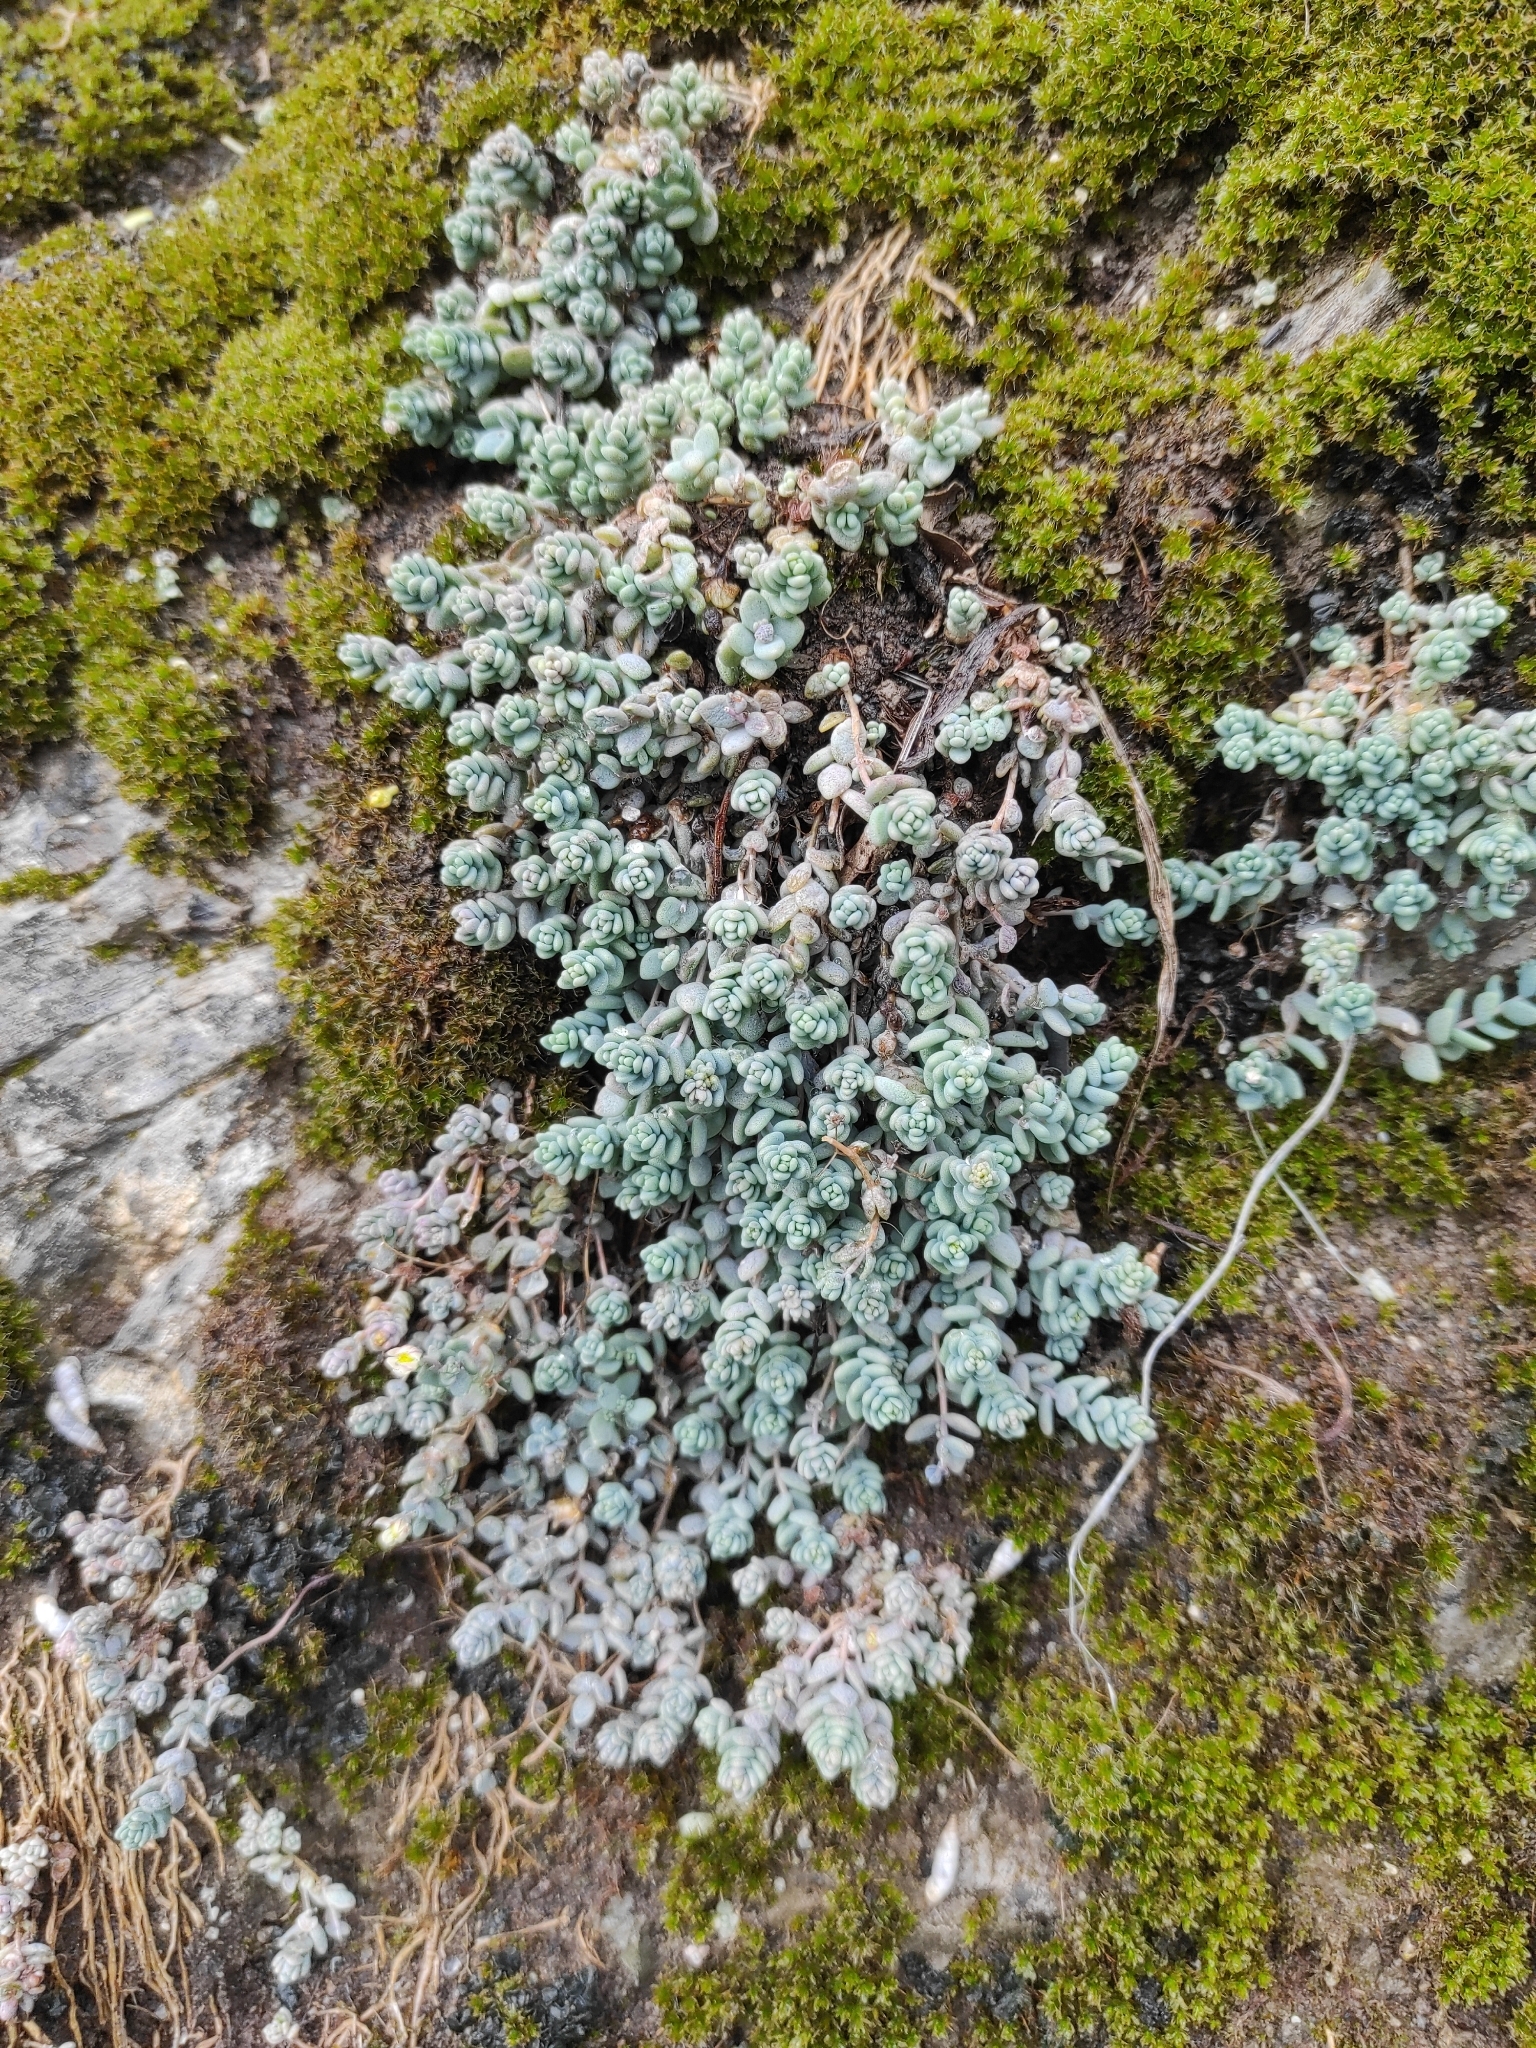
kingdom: Plantae
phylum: Tracheophyta
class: Magnoliopsida
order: Saxifragales
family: Crassulaceae
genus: Sedum
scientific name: Sedum dasyphyllum
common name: Thick-leaf stonecrop
